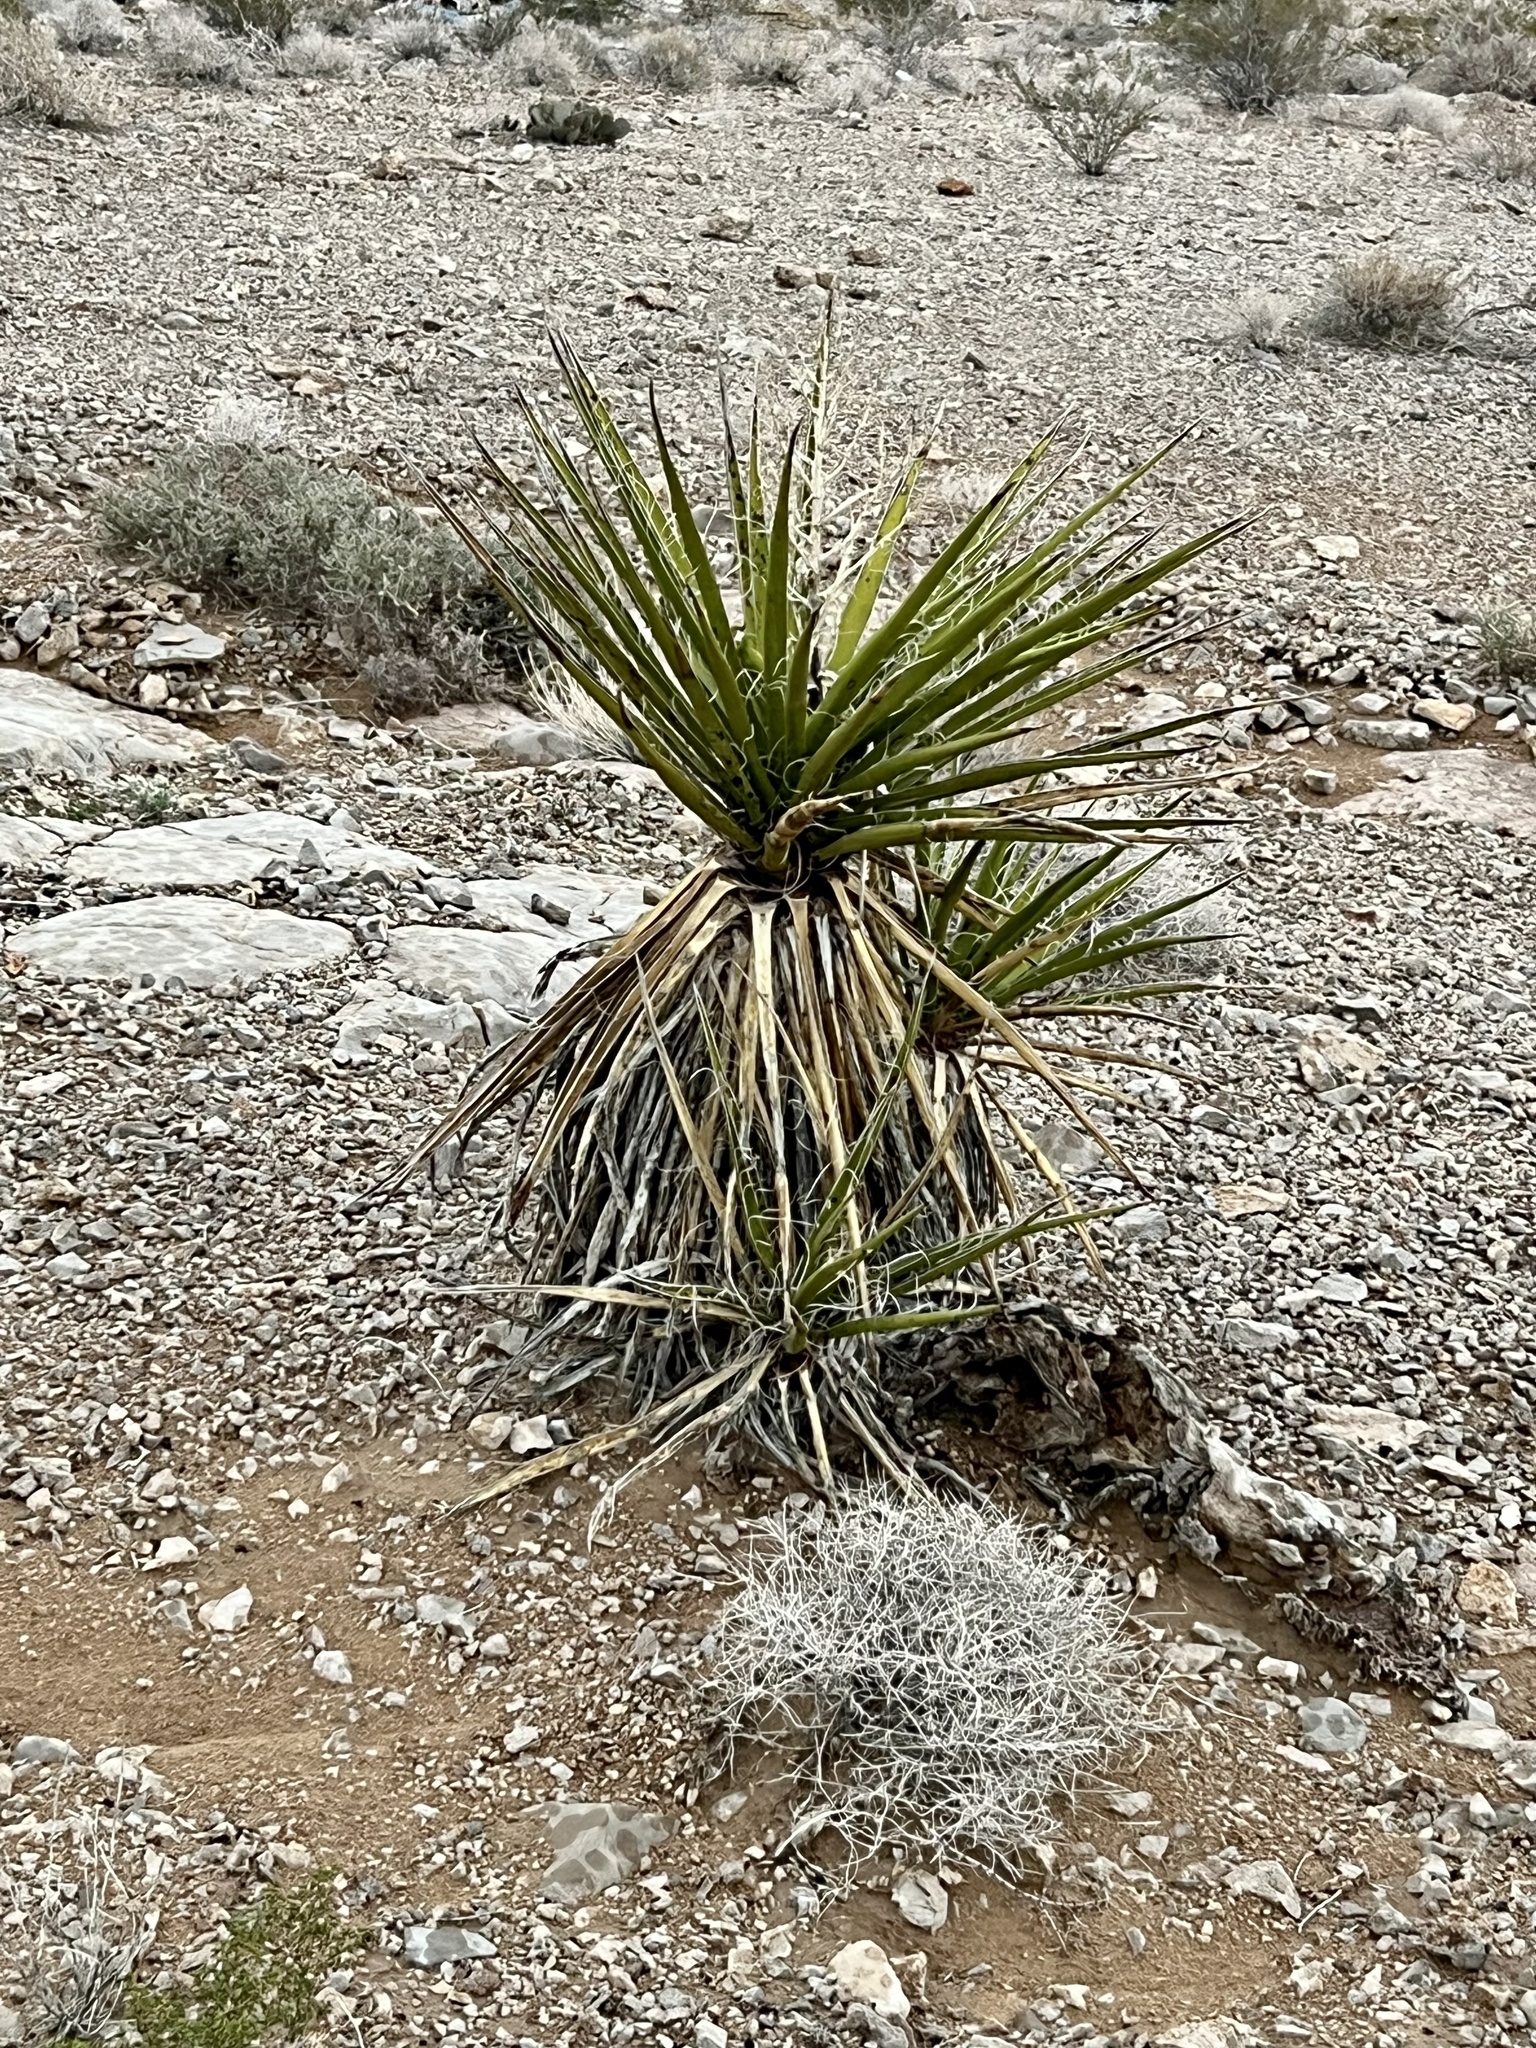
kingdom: Plantae
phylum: Tracheophyta
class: Liliopsida
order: Asparagales
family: Asparagaceae
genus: Yucca
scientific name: Yucca schidigera
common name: Mojave yucca
